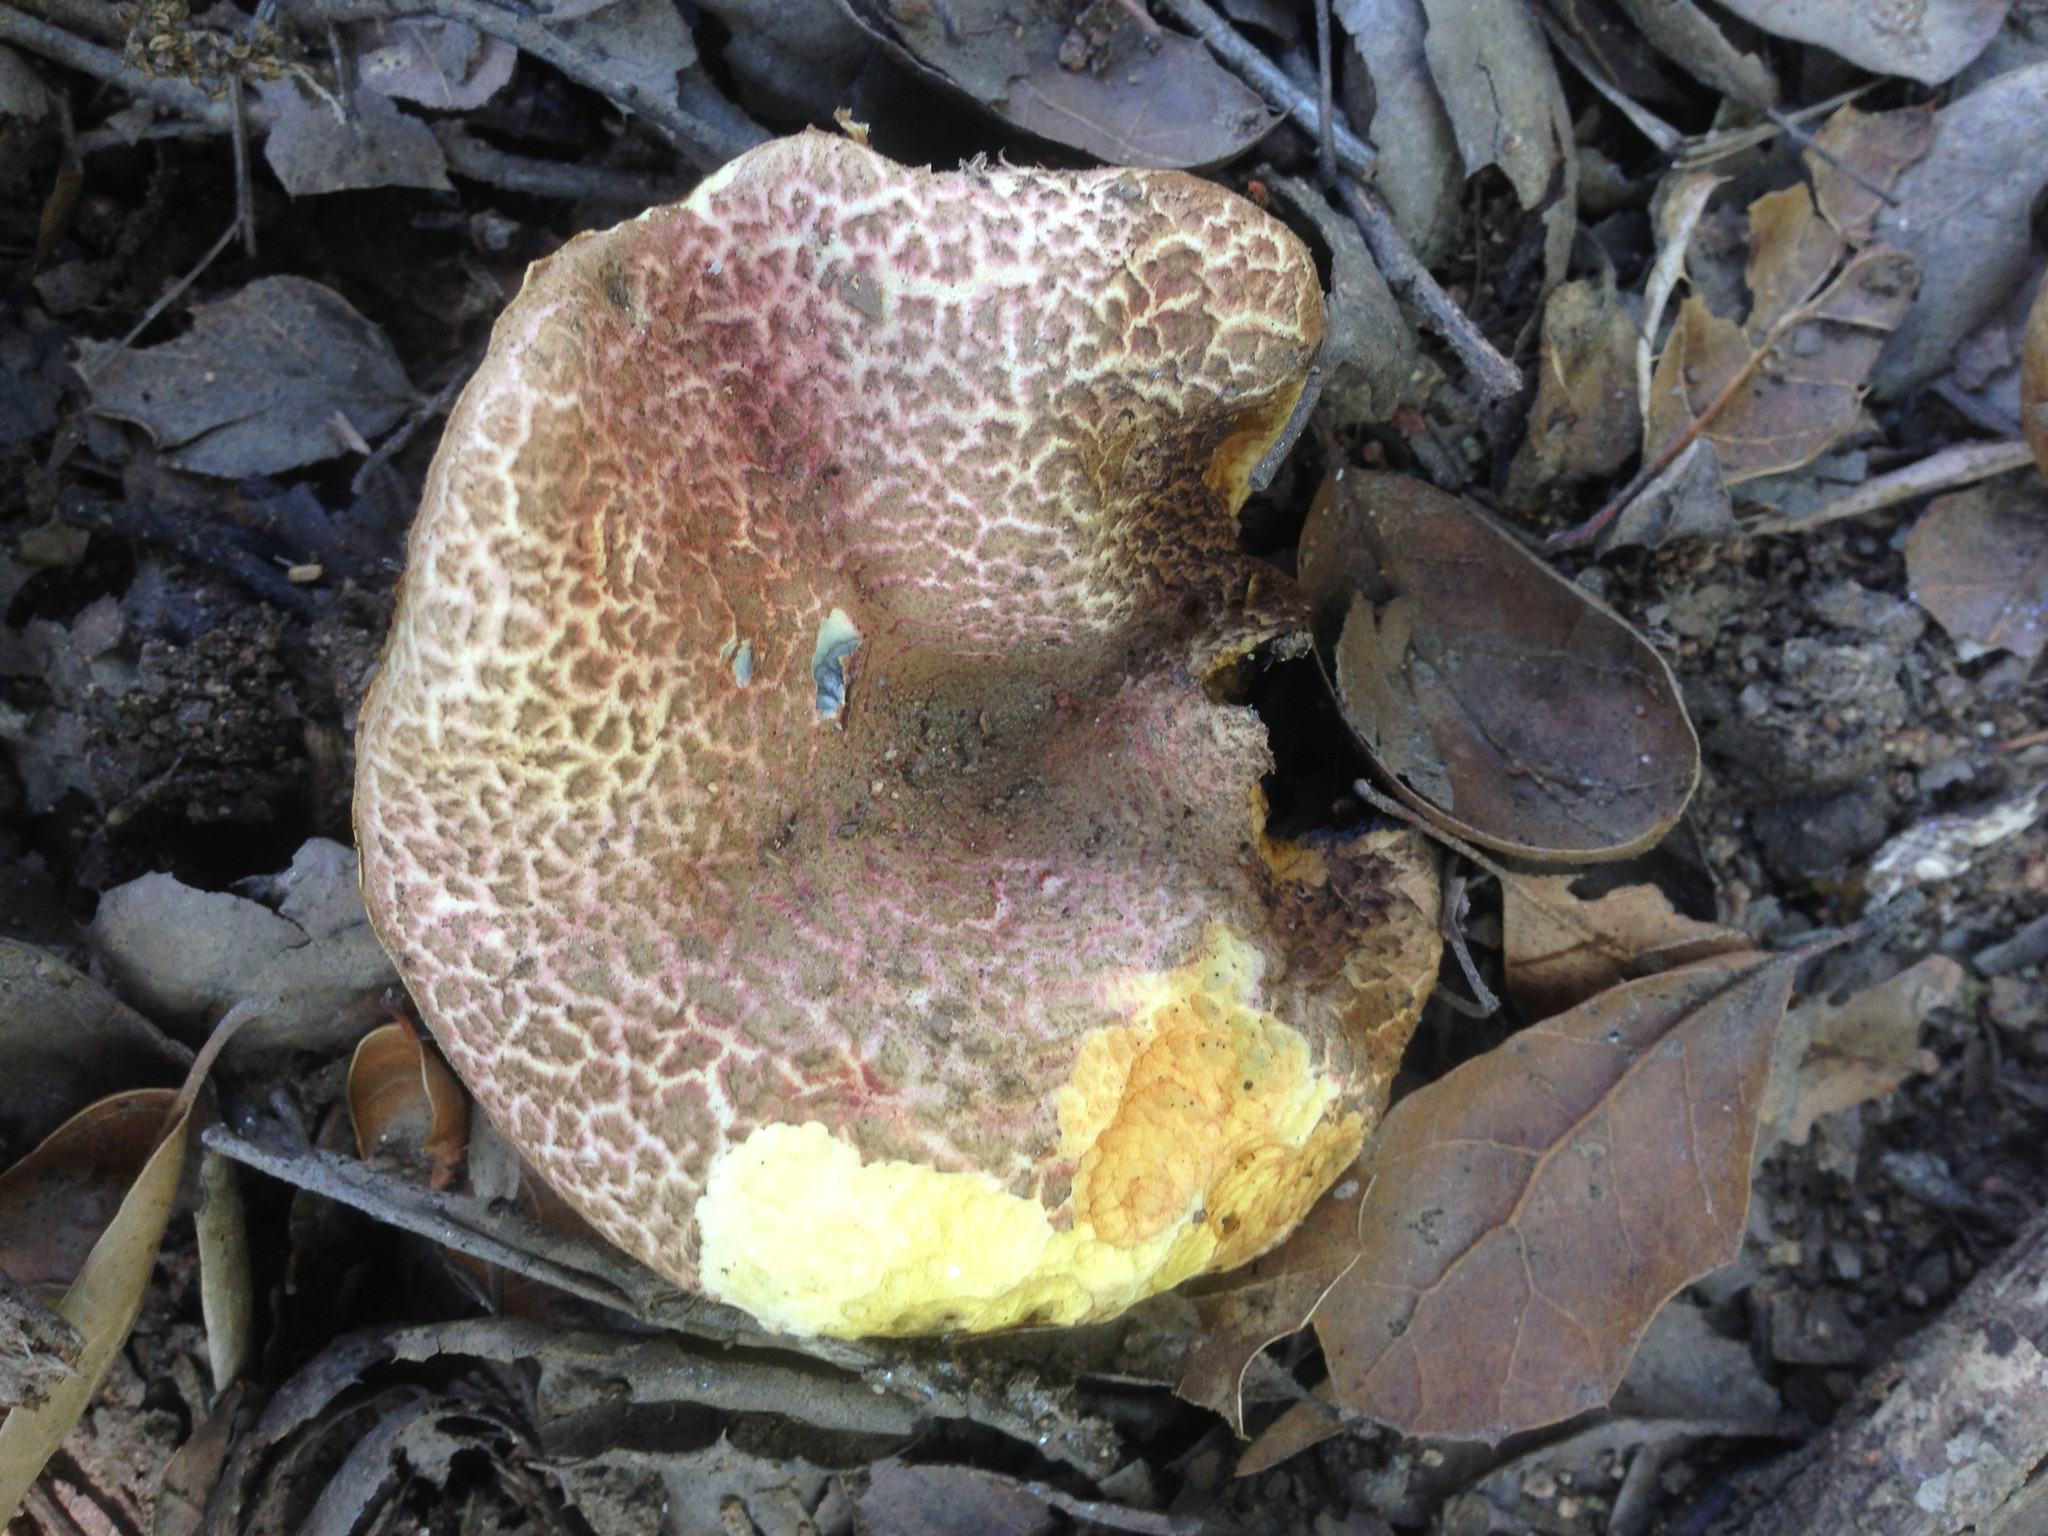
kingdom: Fungi
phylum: Basidiomycota
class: Agaricomycetes
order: Boletales
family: Boletaceae
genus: Xerocomellus
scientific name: Xerocomellus dryophilus
